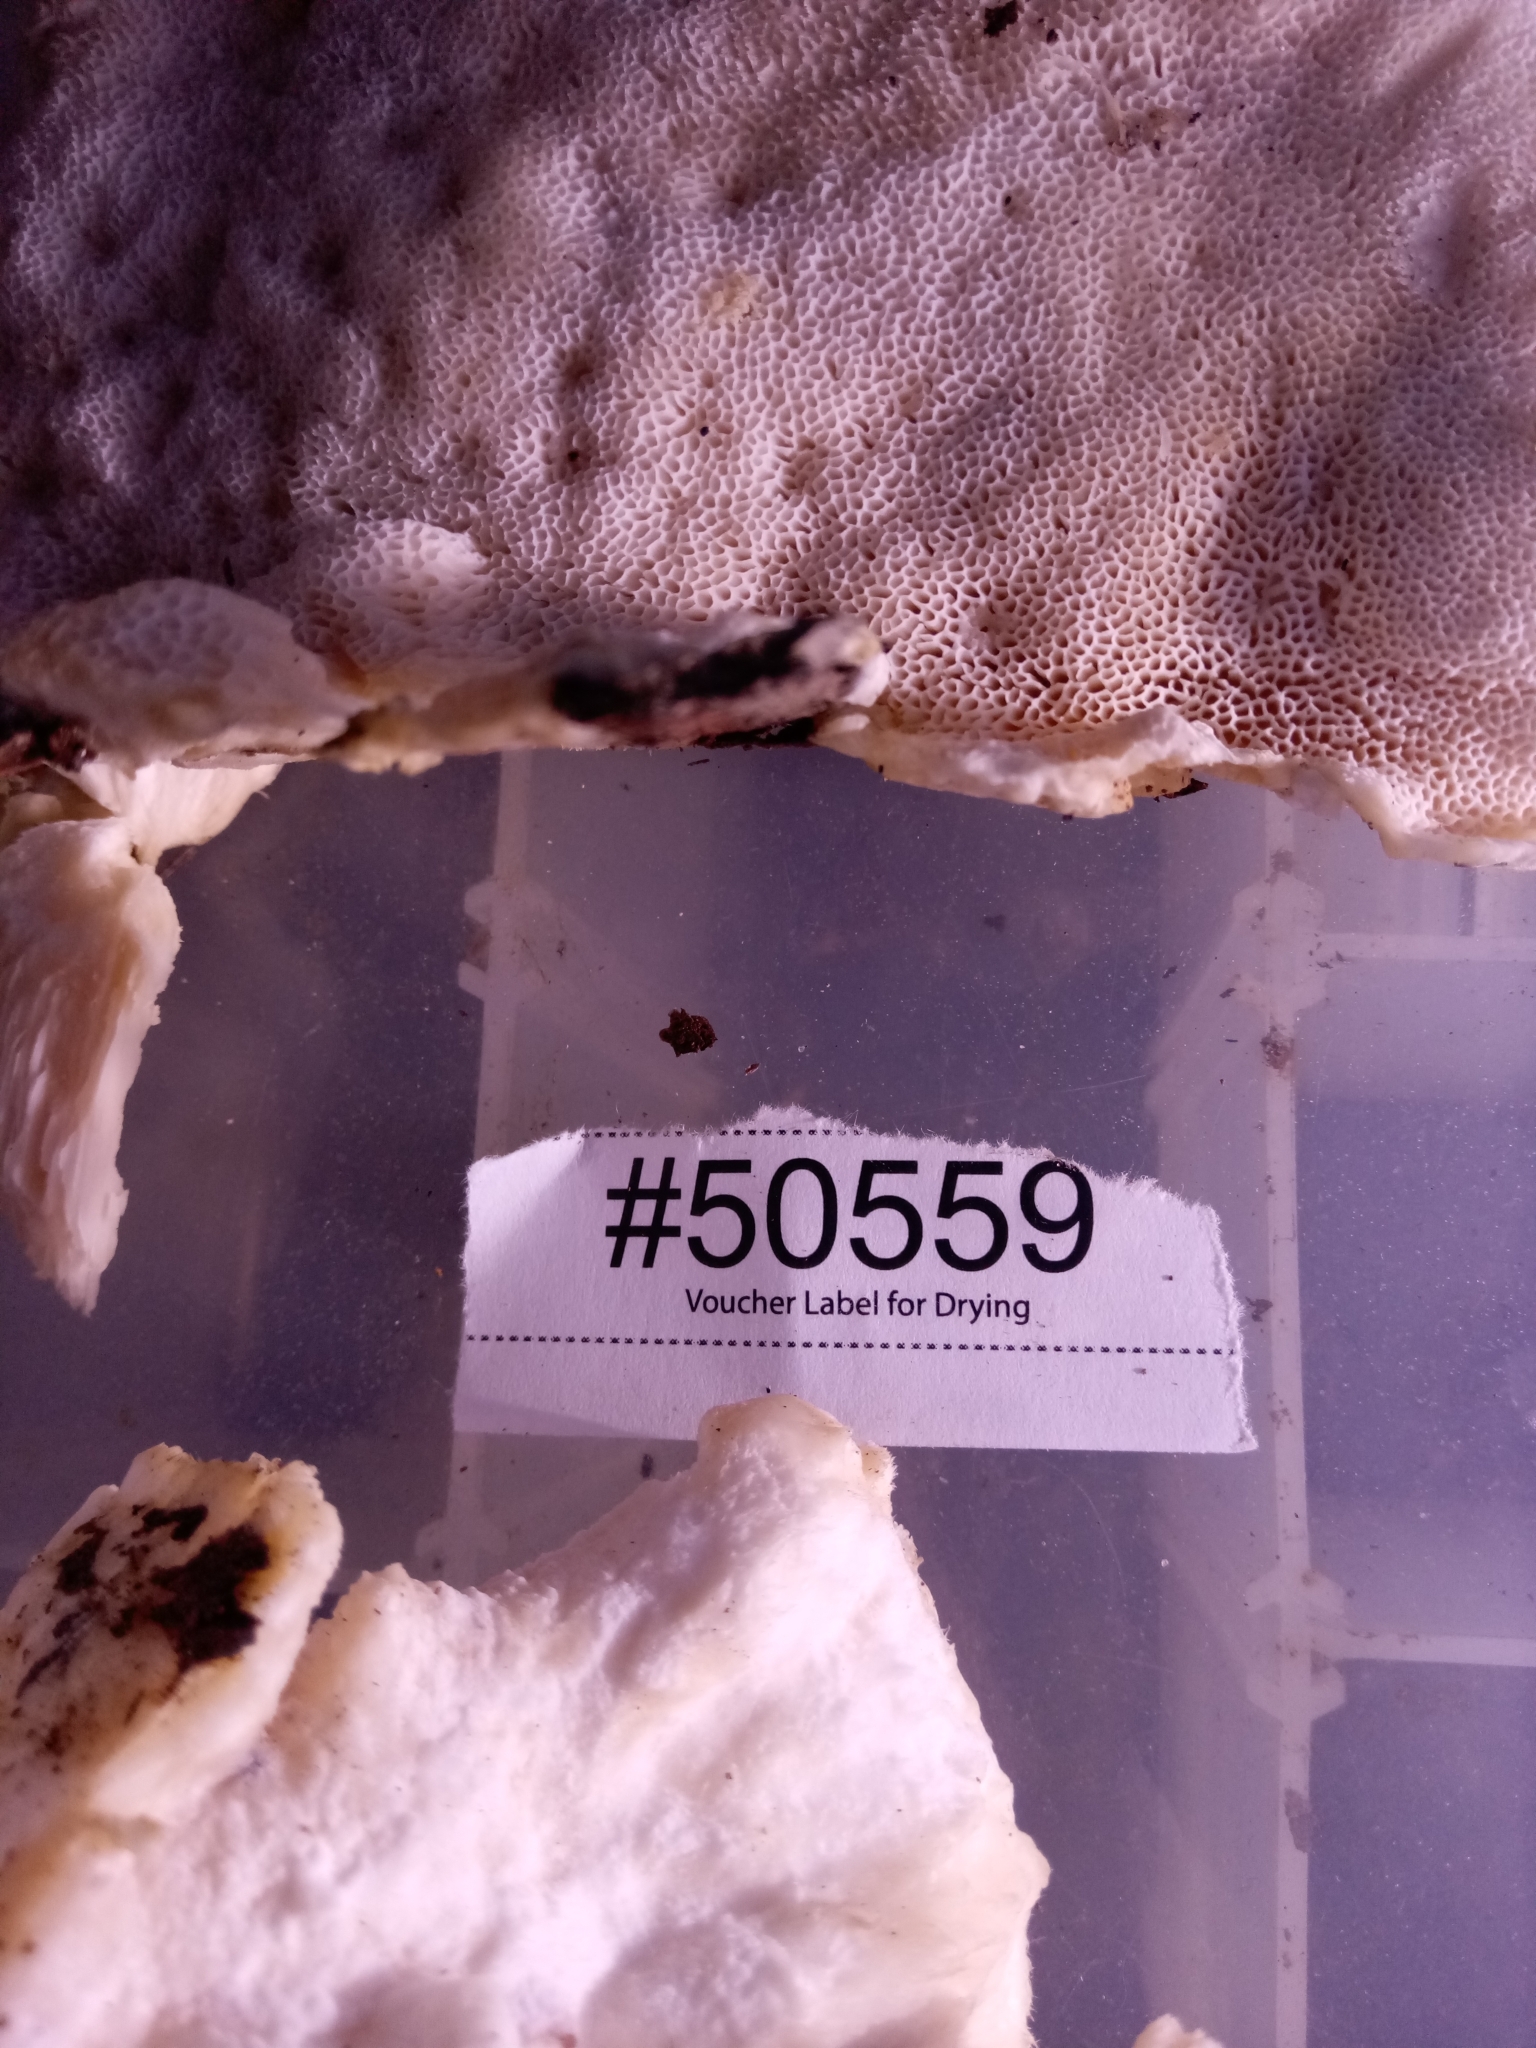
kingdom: Fungi
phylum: Basidiomycota
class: Agaricomycetes
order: Polyporales
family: Meruliaceae
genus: Pappia
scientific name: Pappia fissilis
